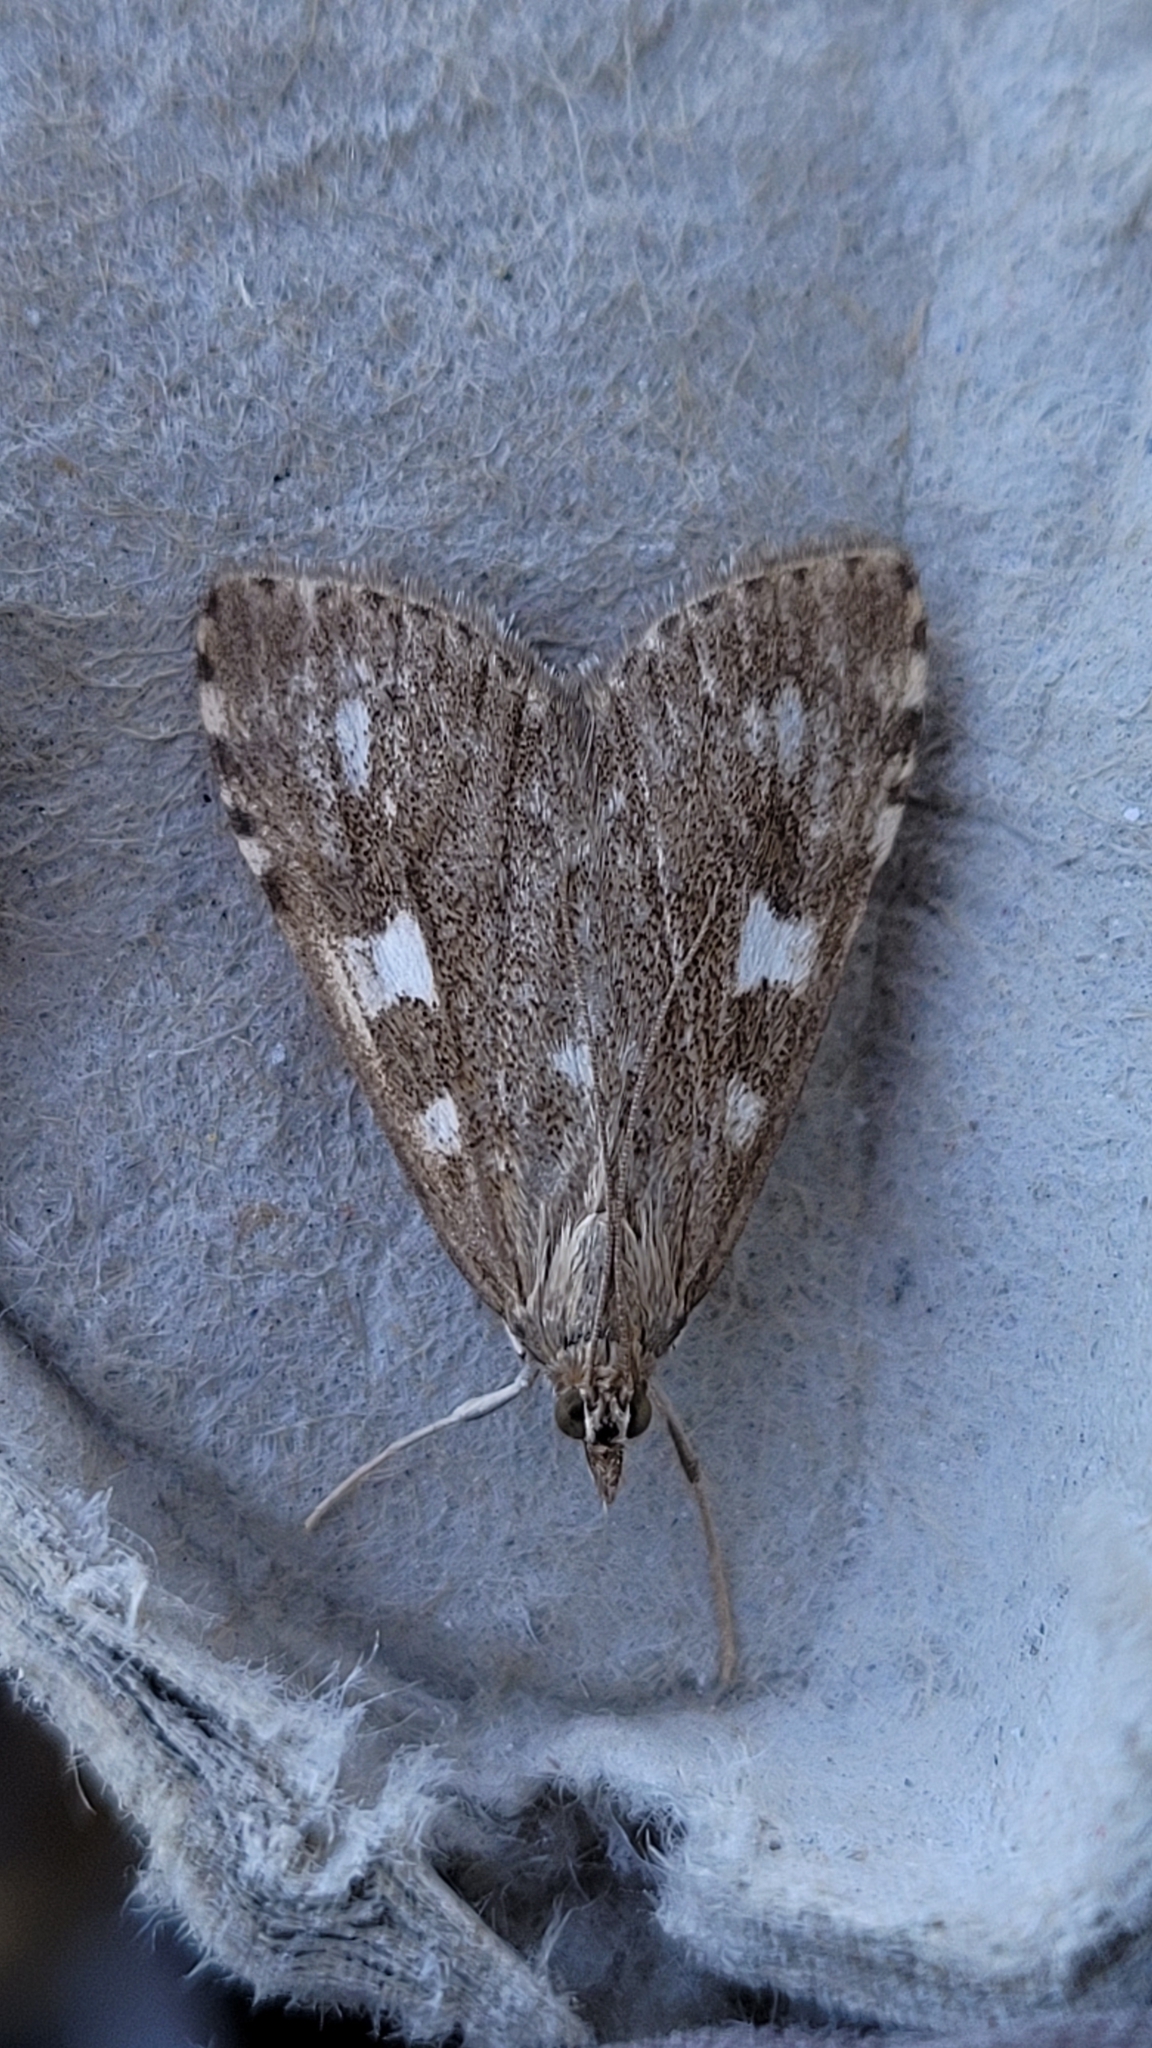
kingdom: Animalia
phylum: Arthropoda
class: Insecta
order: Lepidoptera
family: Crambidae
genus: Udea
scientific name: Udea olivalis
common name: Olive pearl
